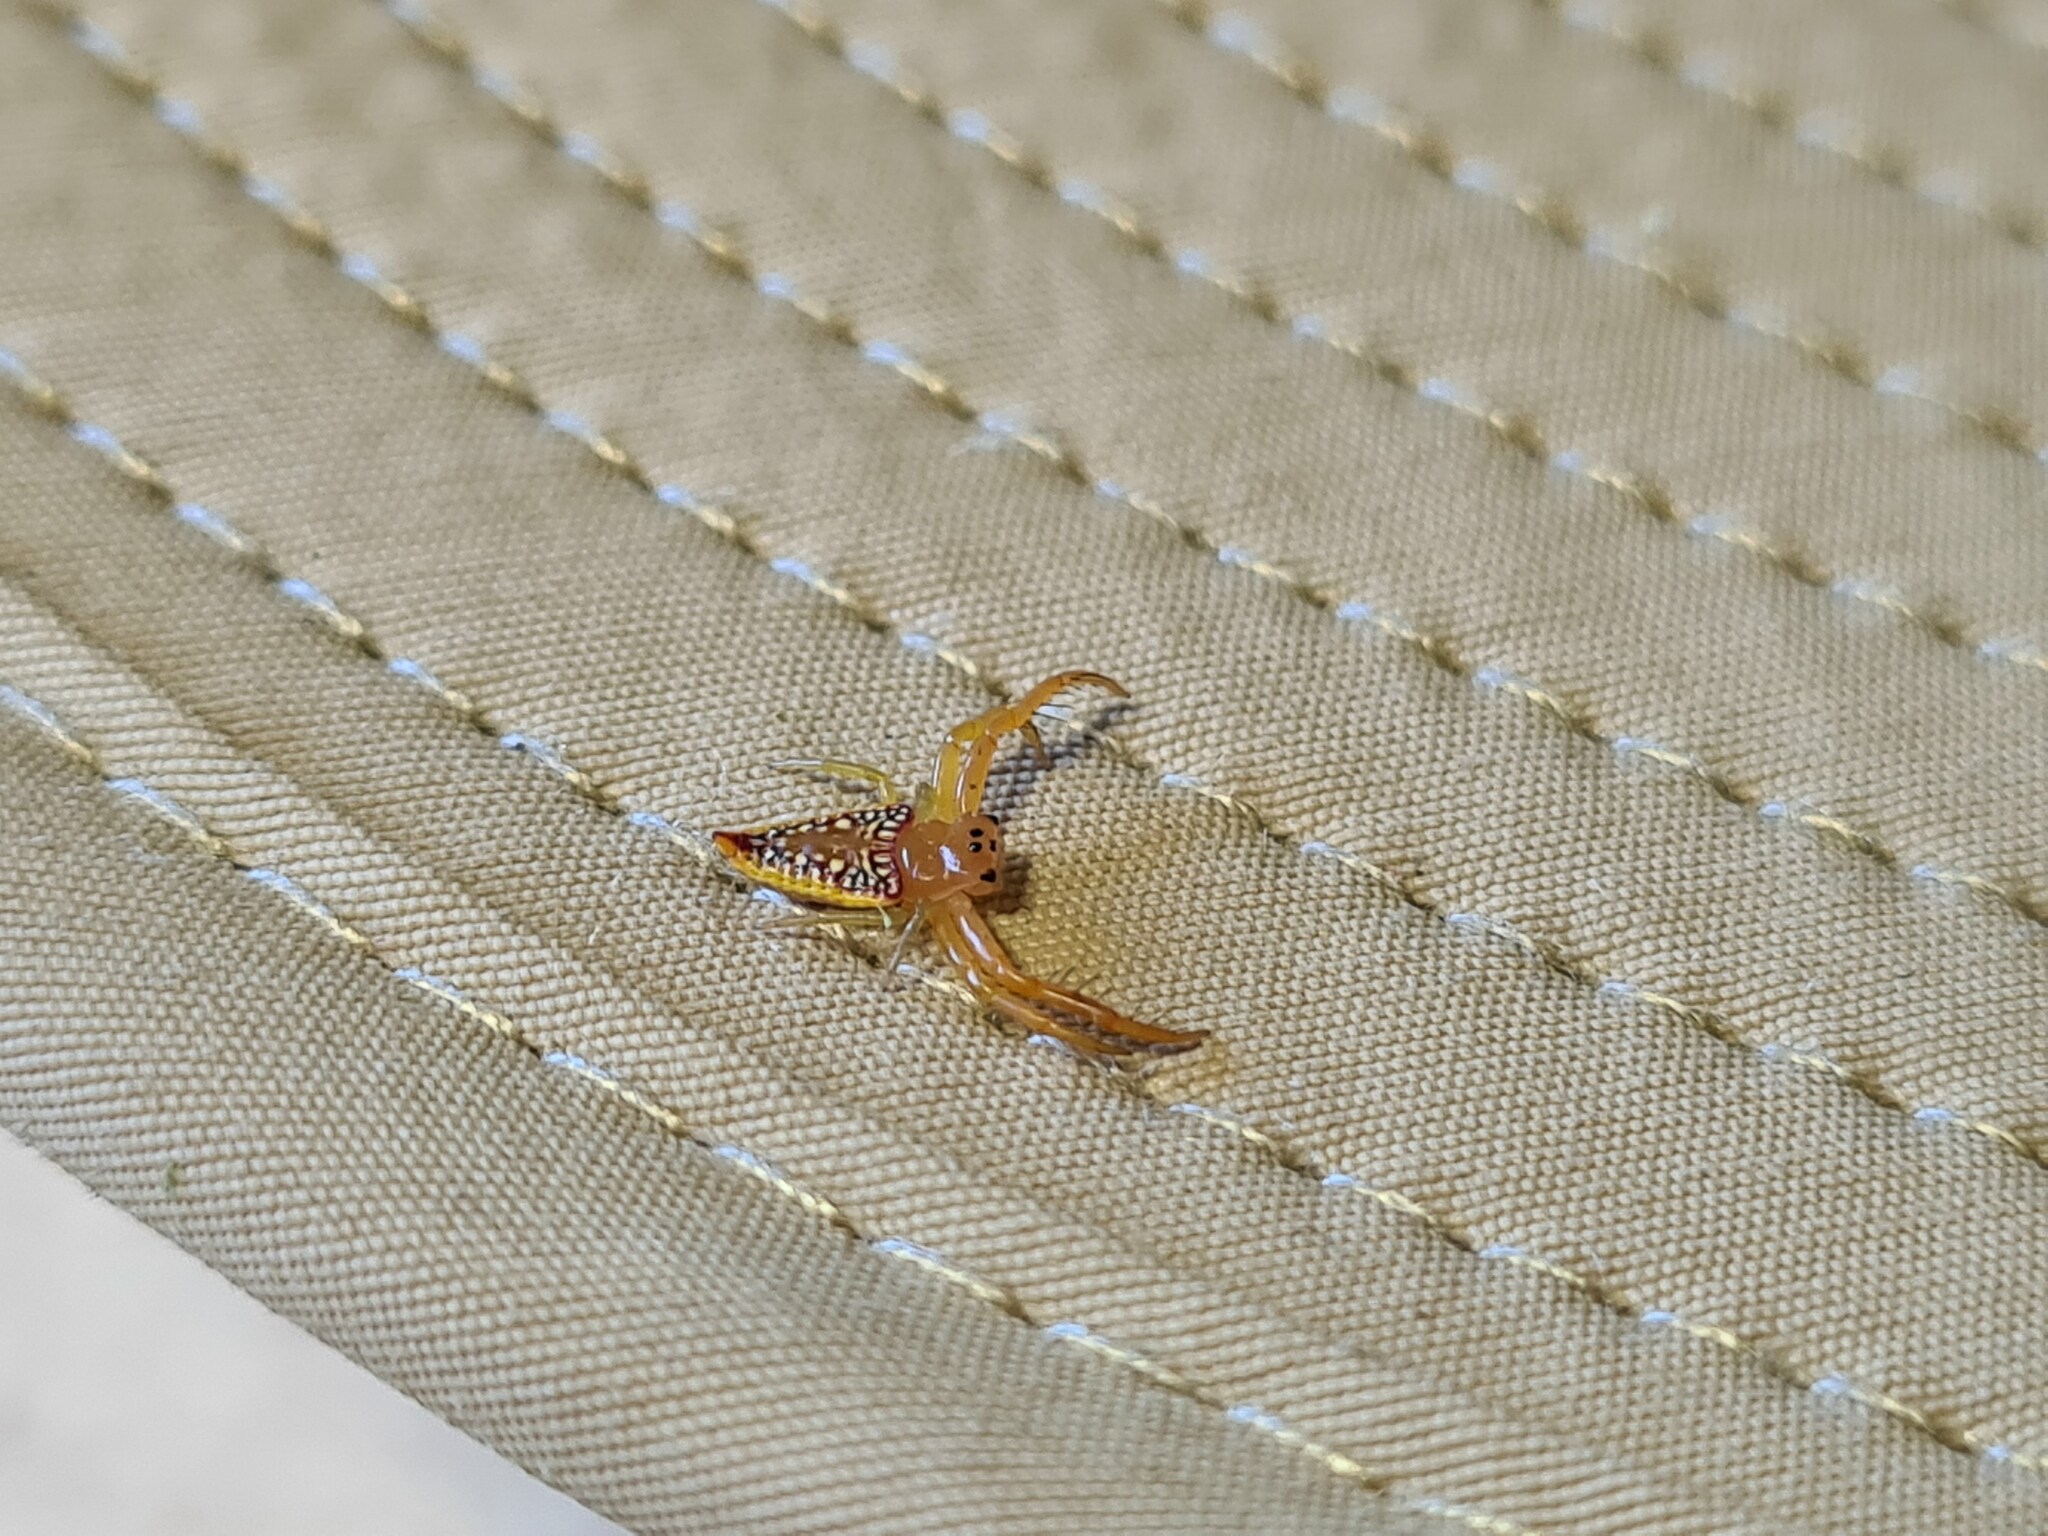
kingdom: Animalia
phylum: Arthropoda
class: Arachnida
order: Araneae
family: Arkyidae
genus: Arkys
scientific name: Arkys walckenaeri
